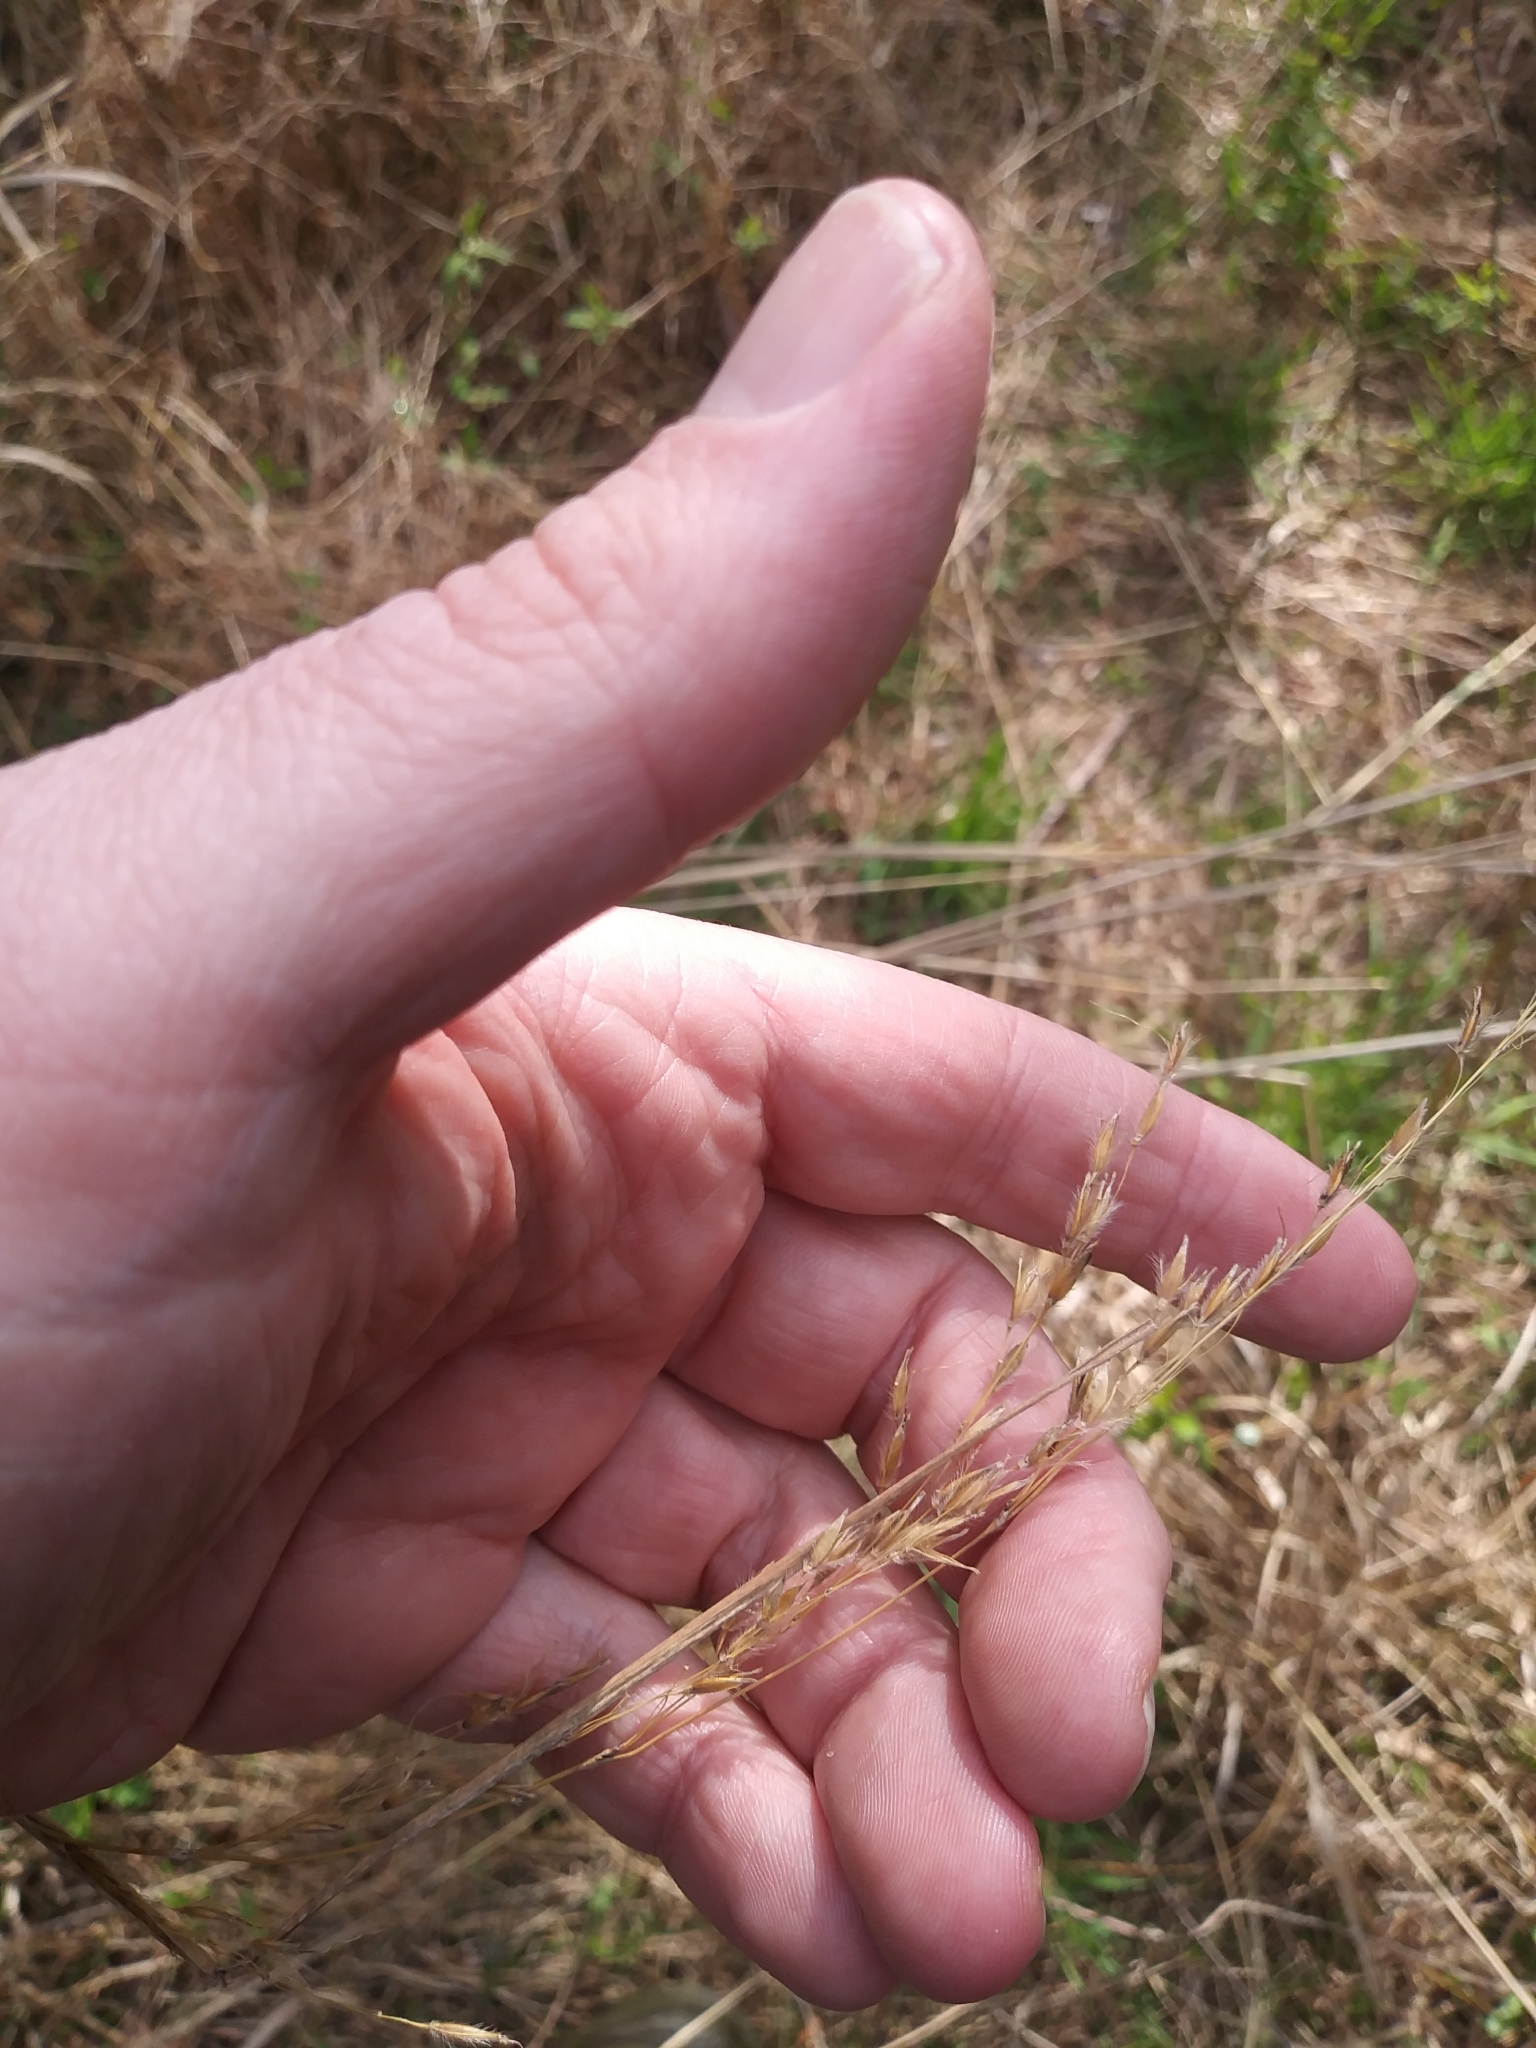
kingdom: Plantae
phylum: Tracheophyta
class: Liliopsida
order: Poales
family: Poaceae
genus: Sorghastrum
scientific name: Sorghastrum nutans
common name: Indian grass
